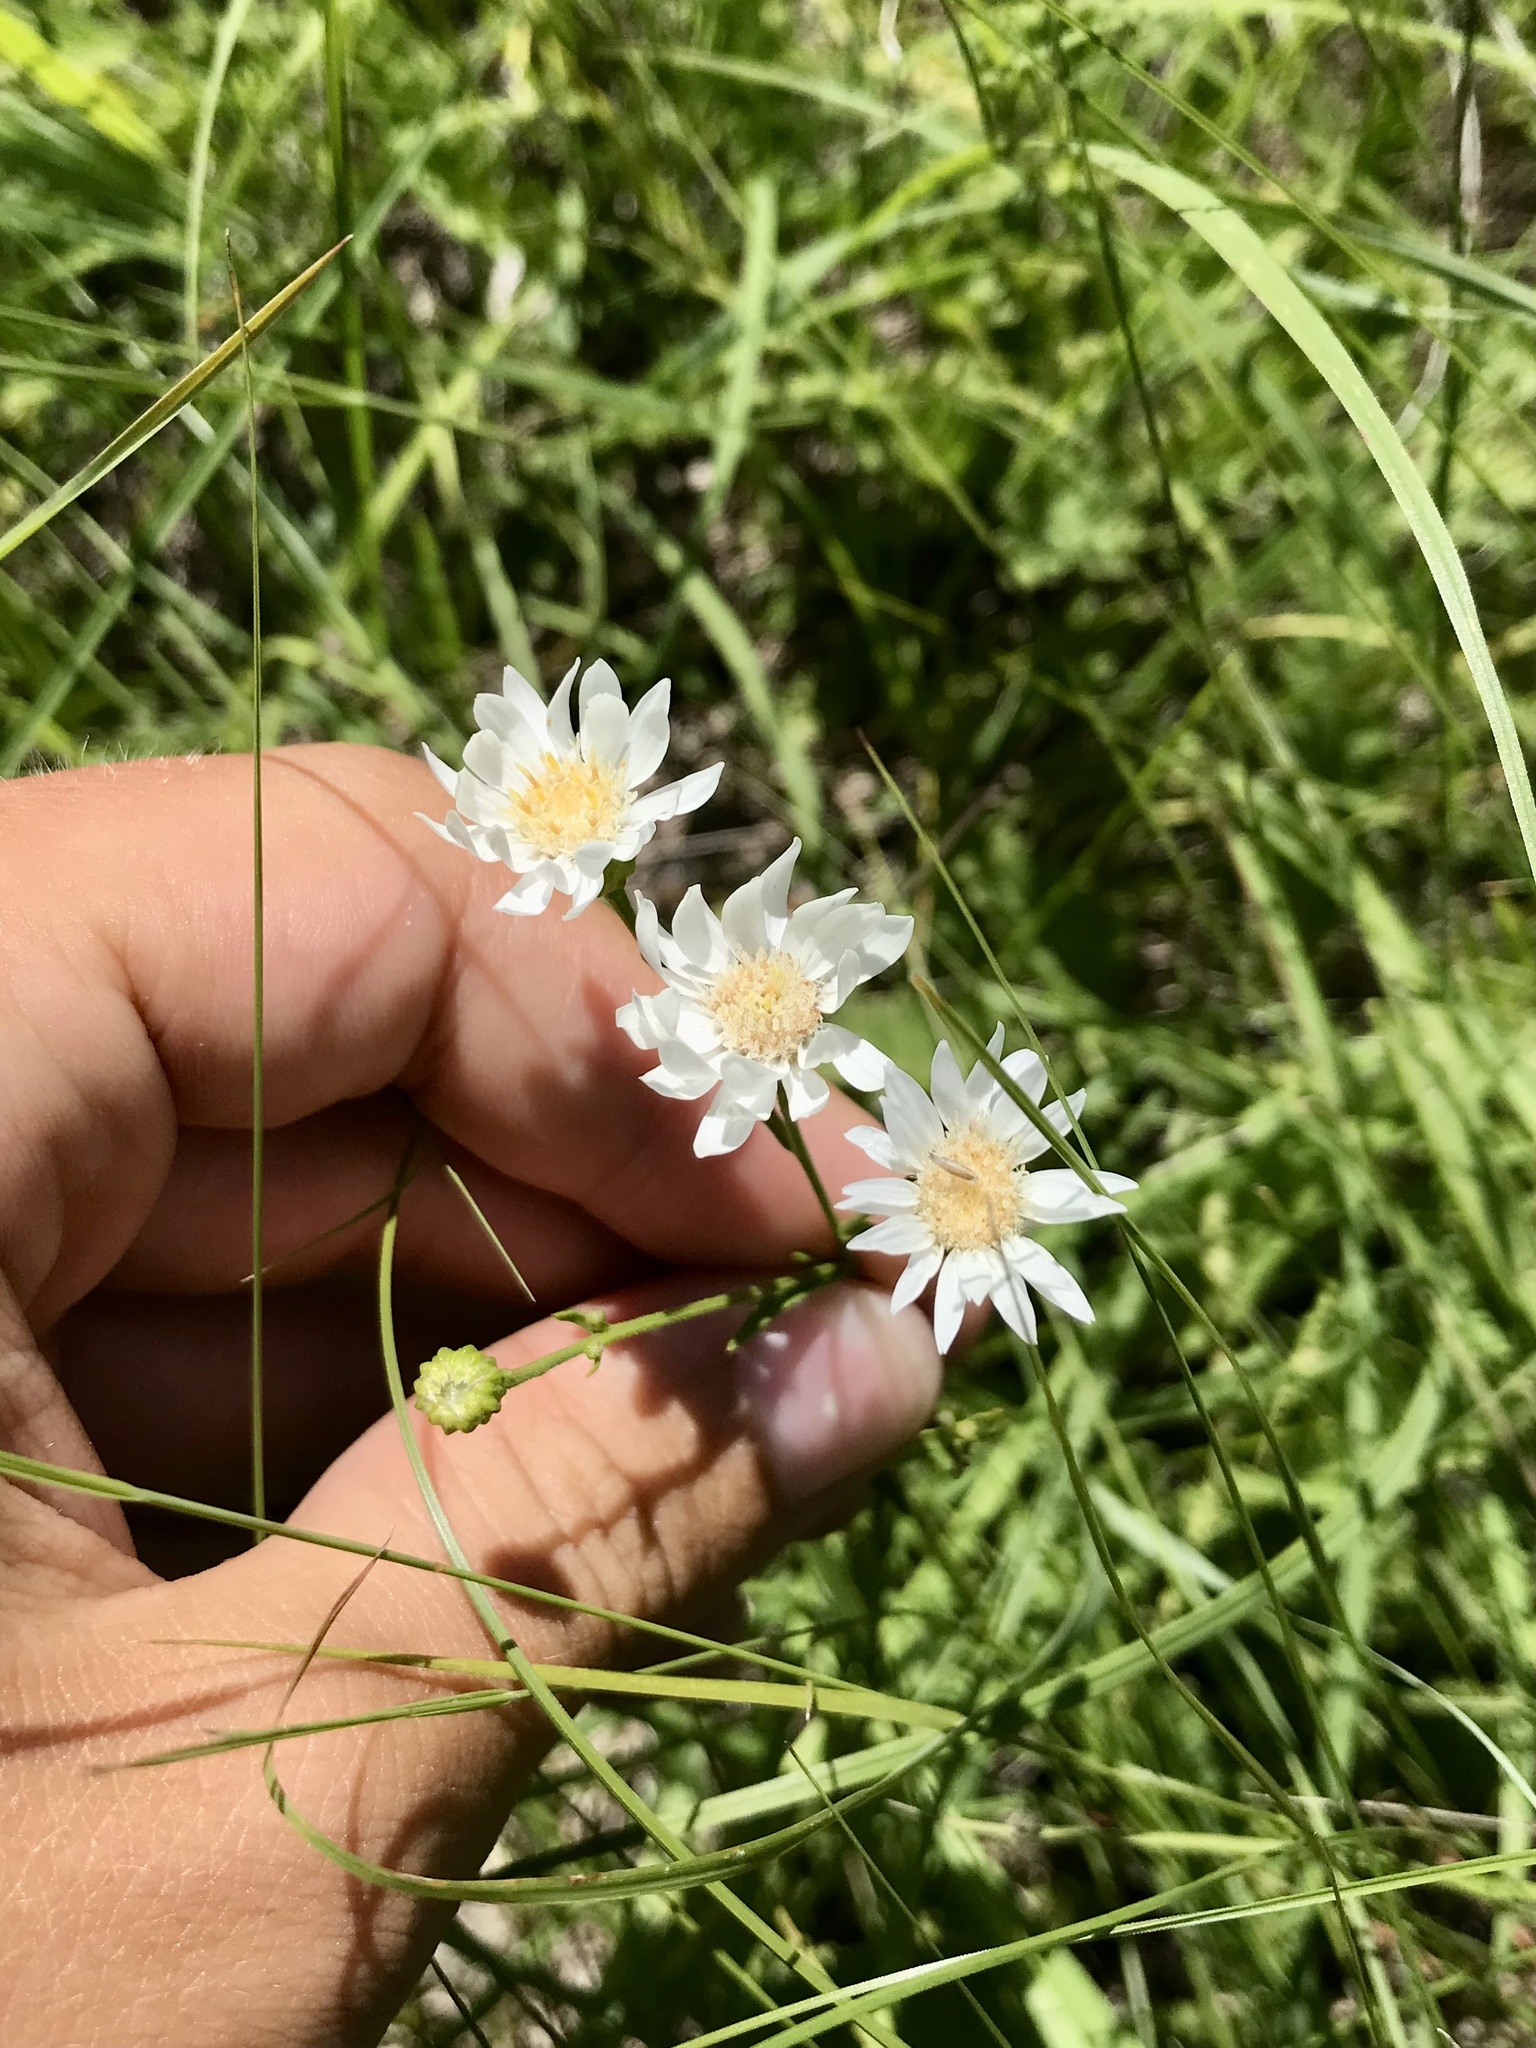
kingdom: Plantae
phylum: Tracheophyta
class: Magnoliopsida
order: Asterales
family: Asteraceae
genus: Solidago
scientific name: Solidago ptarmicoides
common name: White flat-top goldenrod
